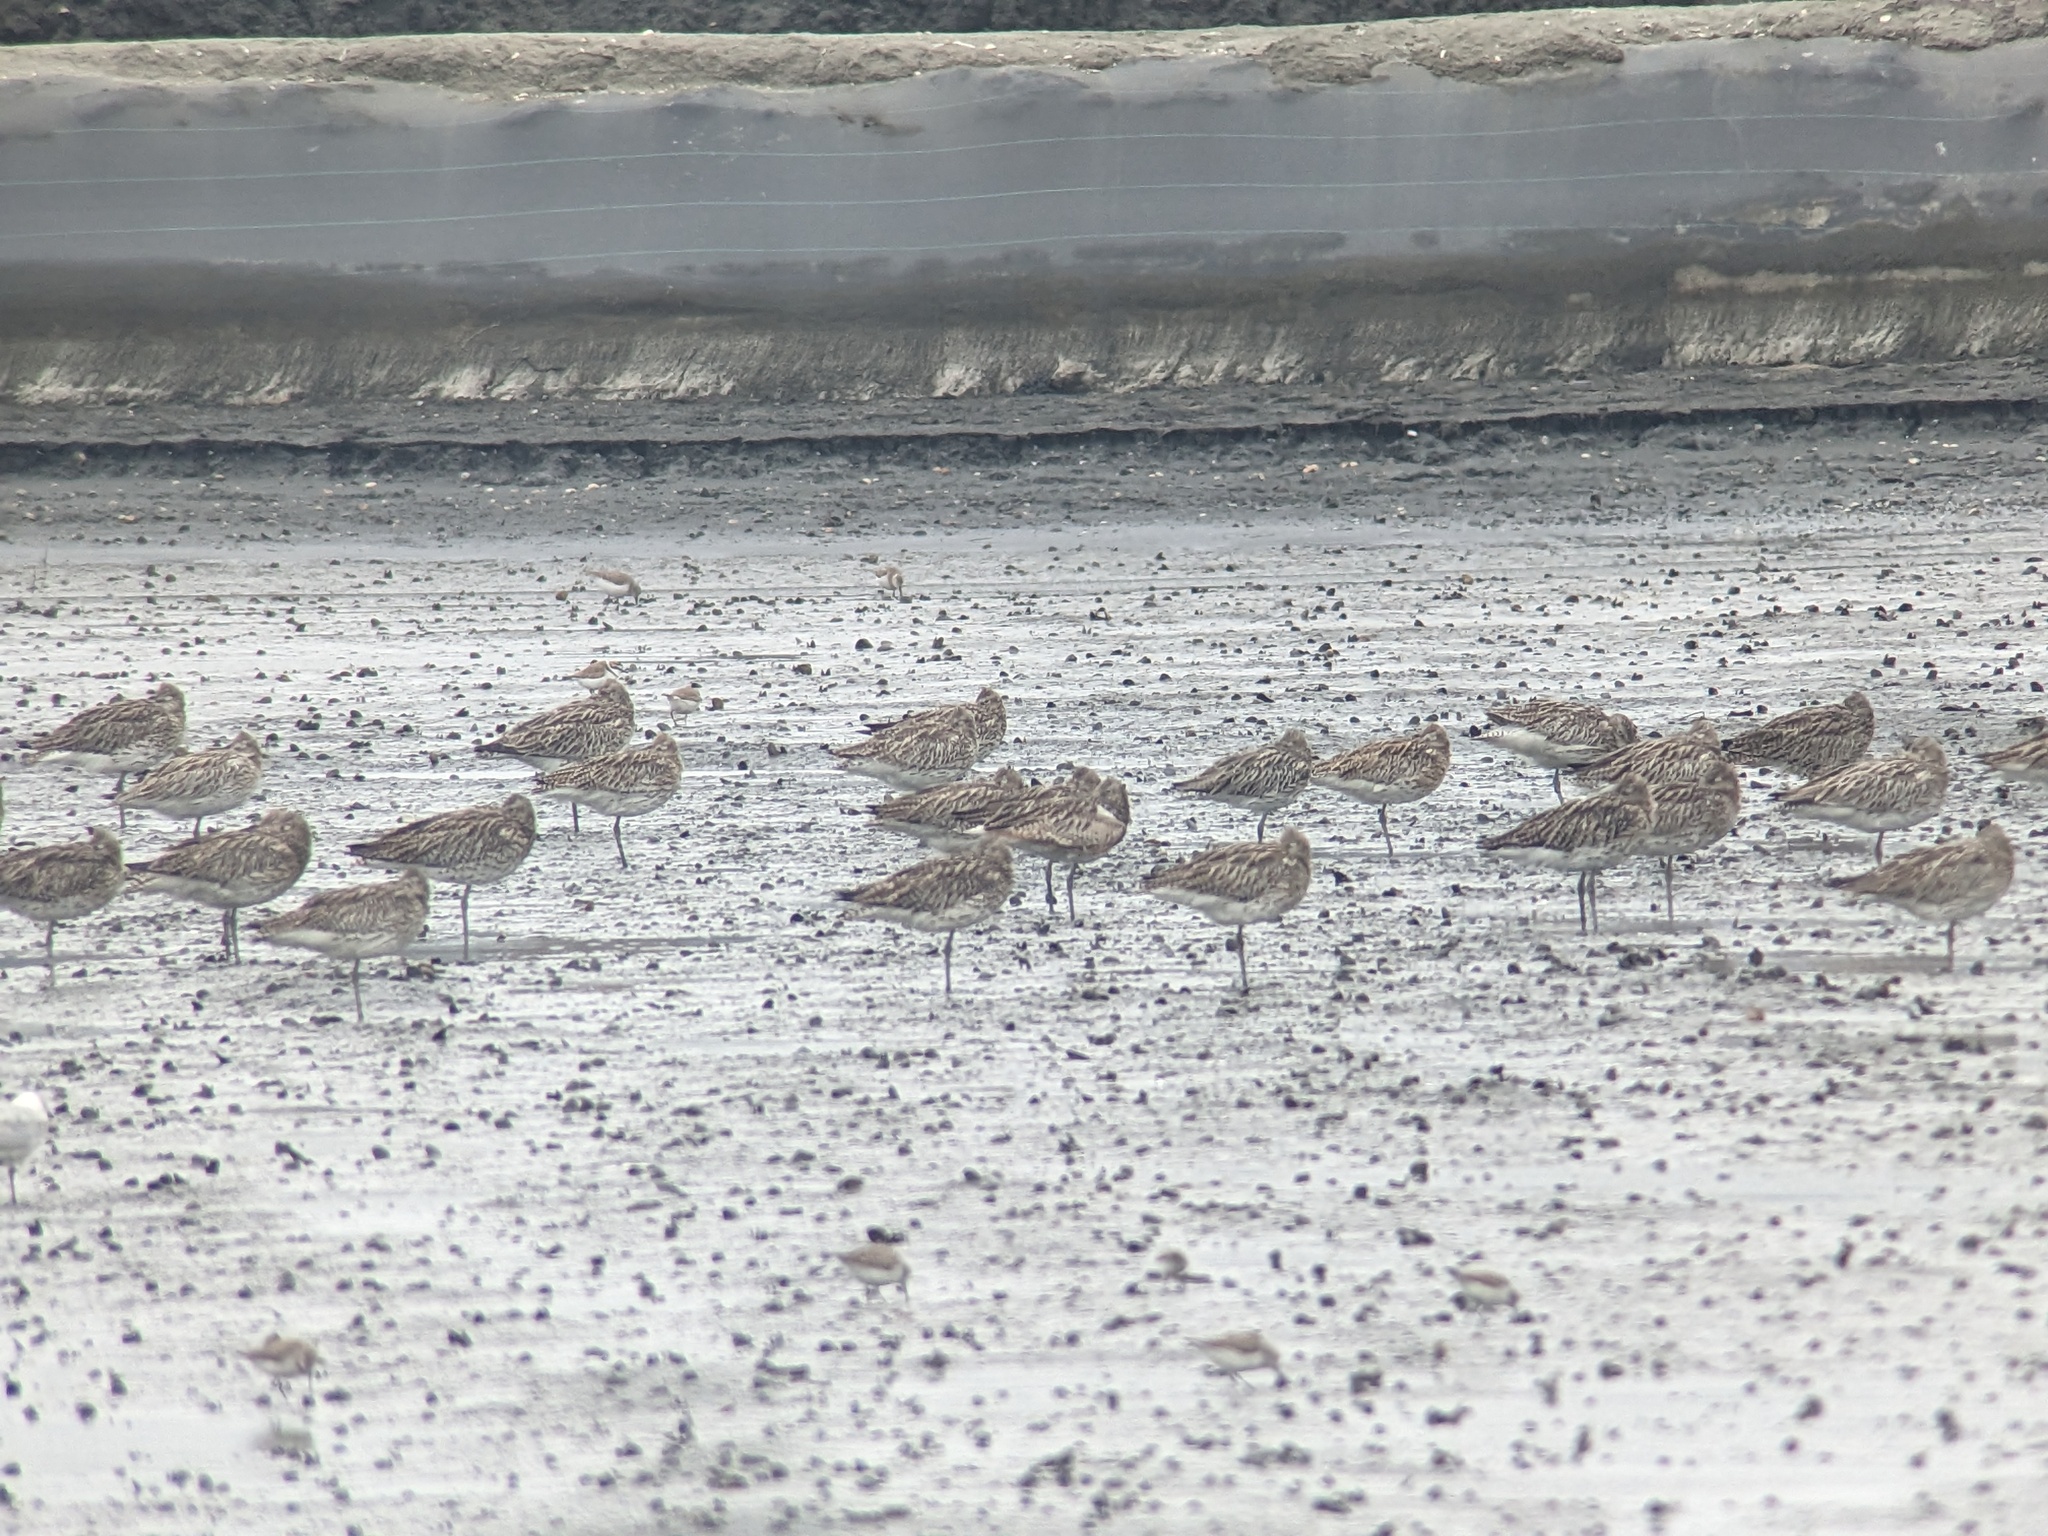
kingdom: Animalia
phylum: Chordata
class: Aves
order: Charadriiformes
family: Scolopacidae
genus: Numenius
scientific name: Numenius arquata
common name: Eurasian curlew
